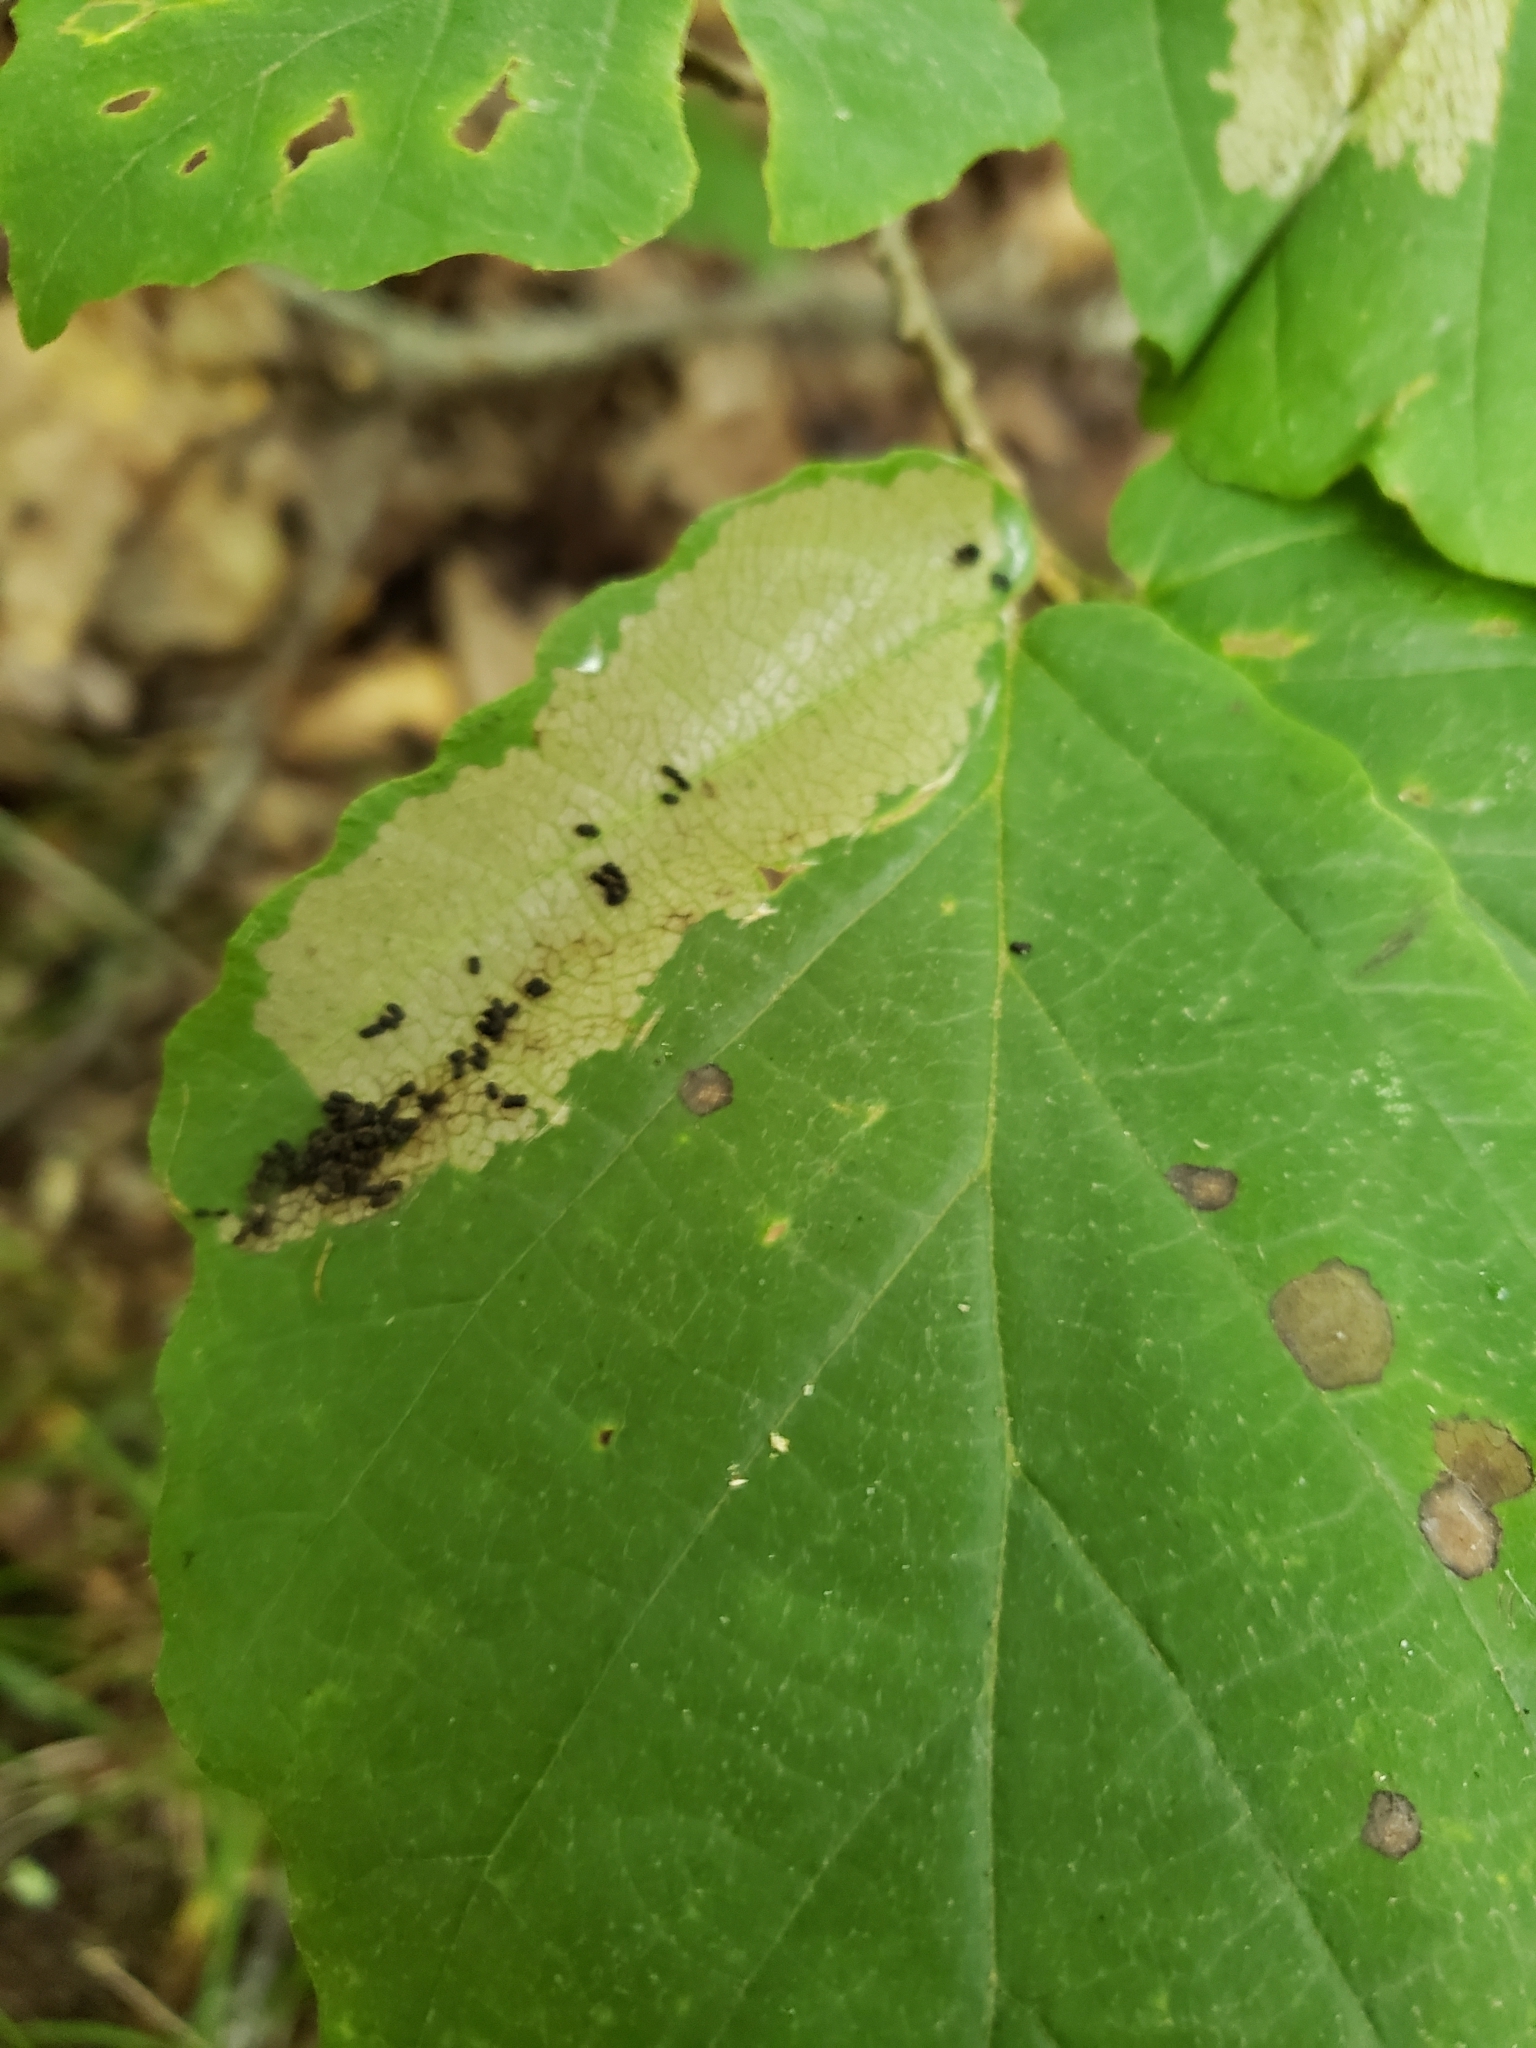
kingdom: Animalia
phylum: Arthropoda
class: Insecta
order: Lepidoptera
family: Nolidae
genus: Nola
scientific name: Nola triquetrana
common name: Three-spotted nola moth
